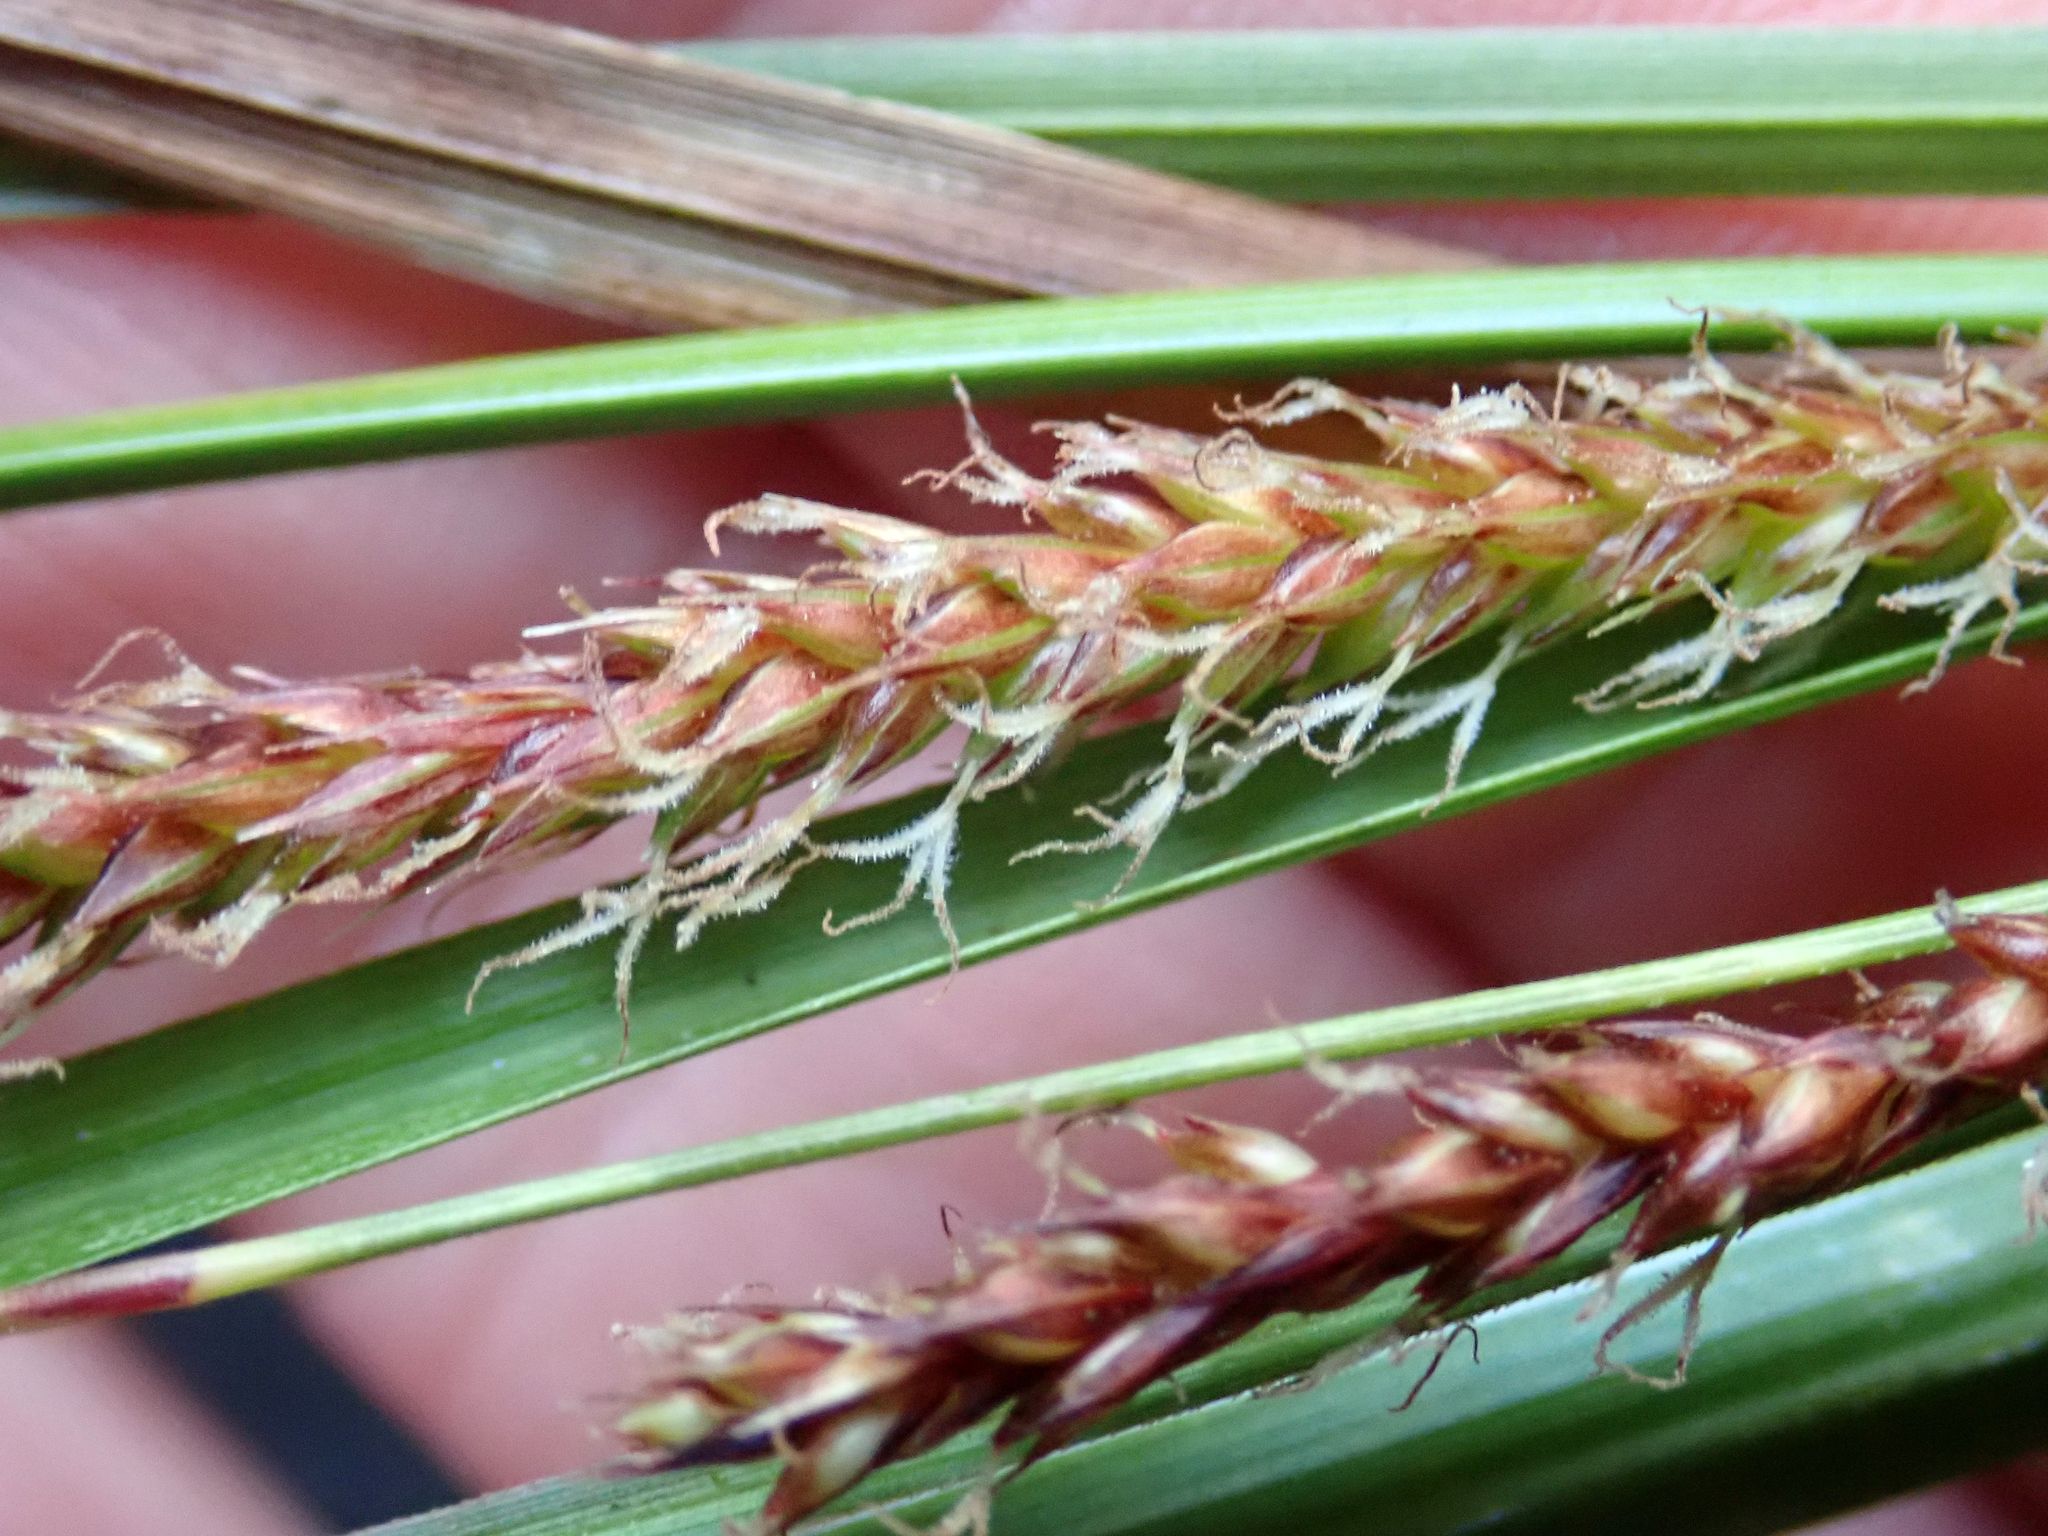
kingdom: Plantae
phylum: Tracheophyta
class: Liliopsida
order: Poales
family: Cyperaceae
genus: Carex
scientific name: Carex cremnicola
